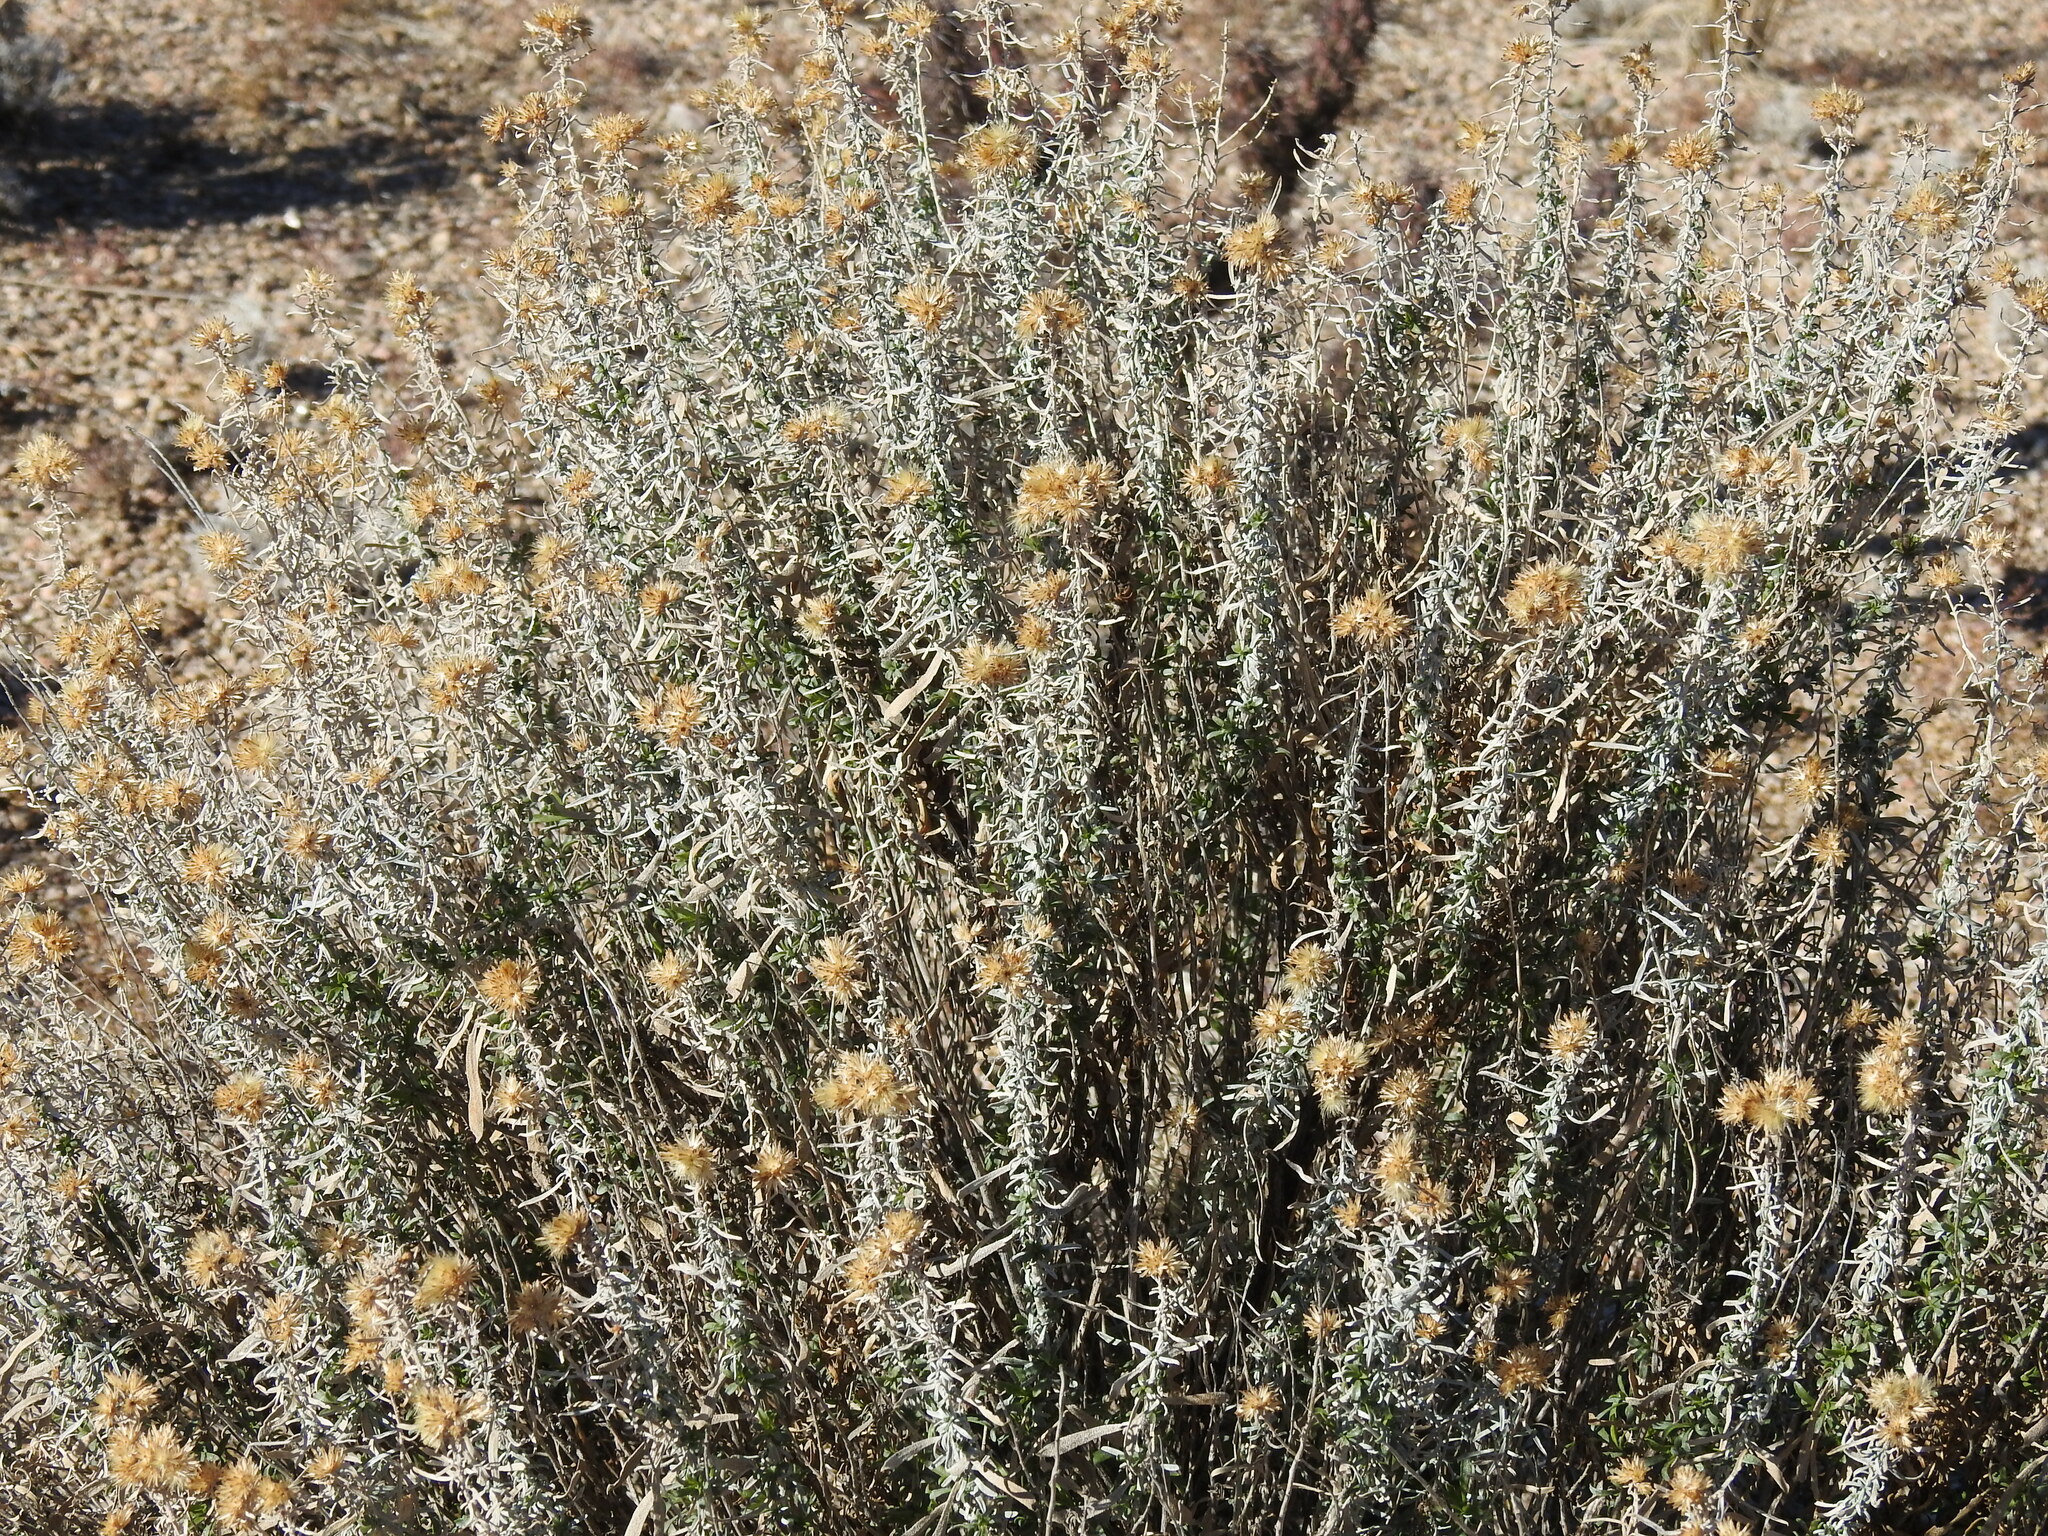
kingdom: Plantae
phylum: Tracheophyta
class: Magnoliopsida
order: Asterales
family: Asteraceae
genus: Isocoma
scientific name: Isocoma acradenia
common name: Alkali jimmyweed
